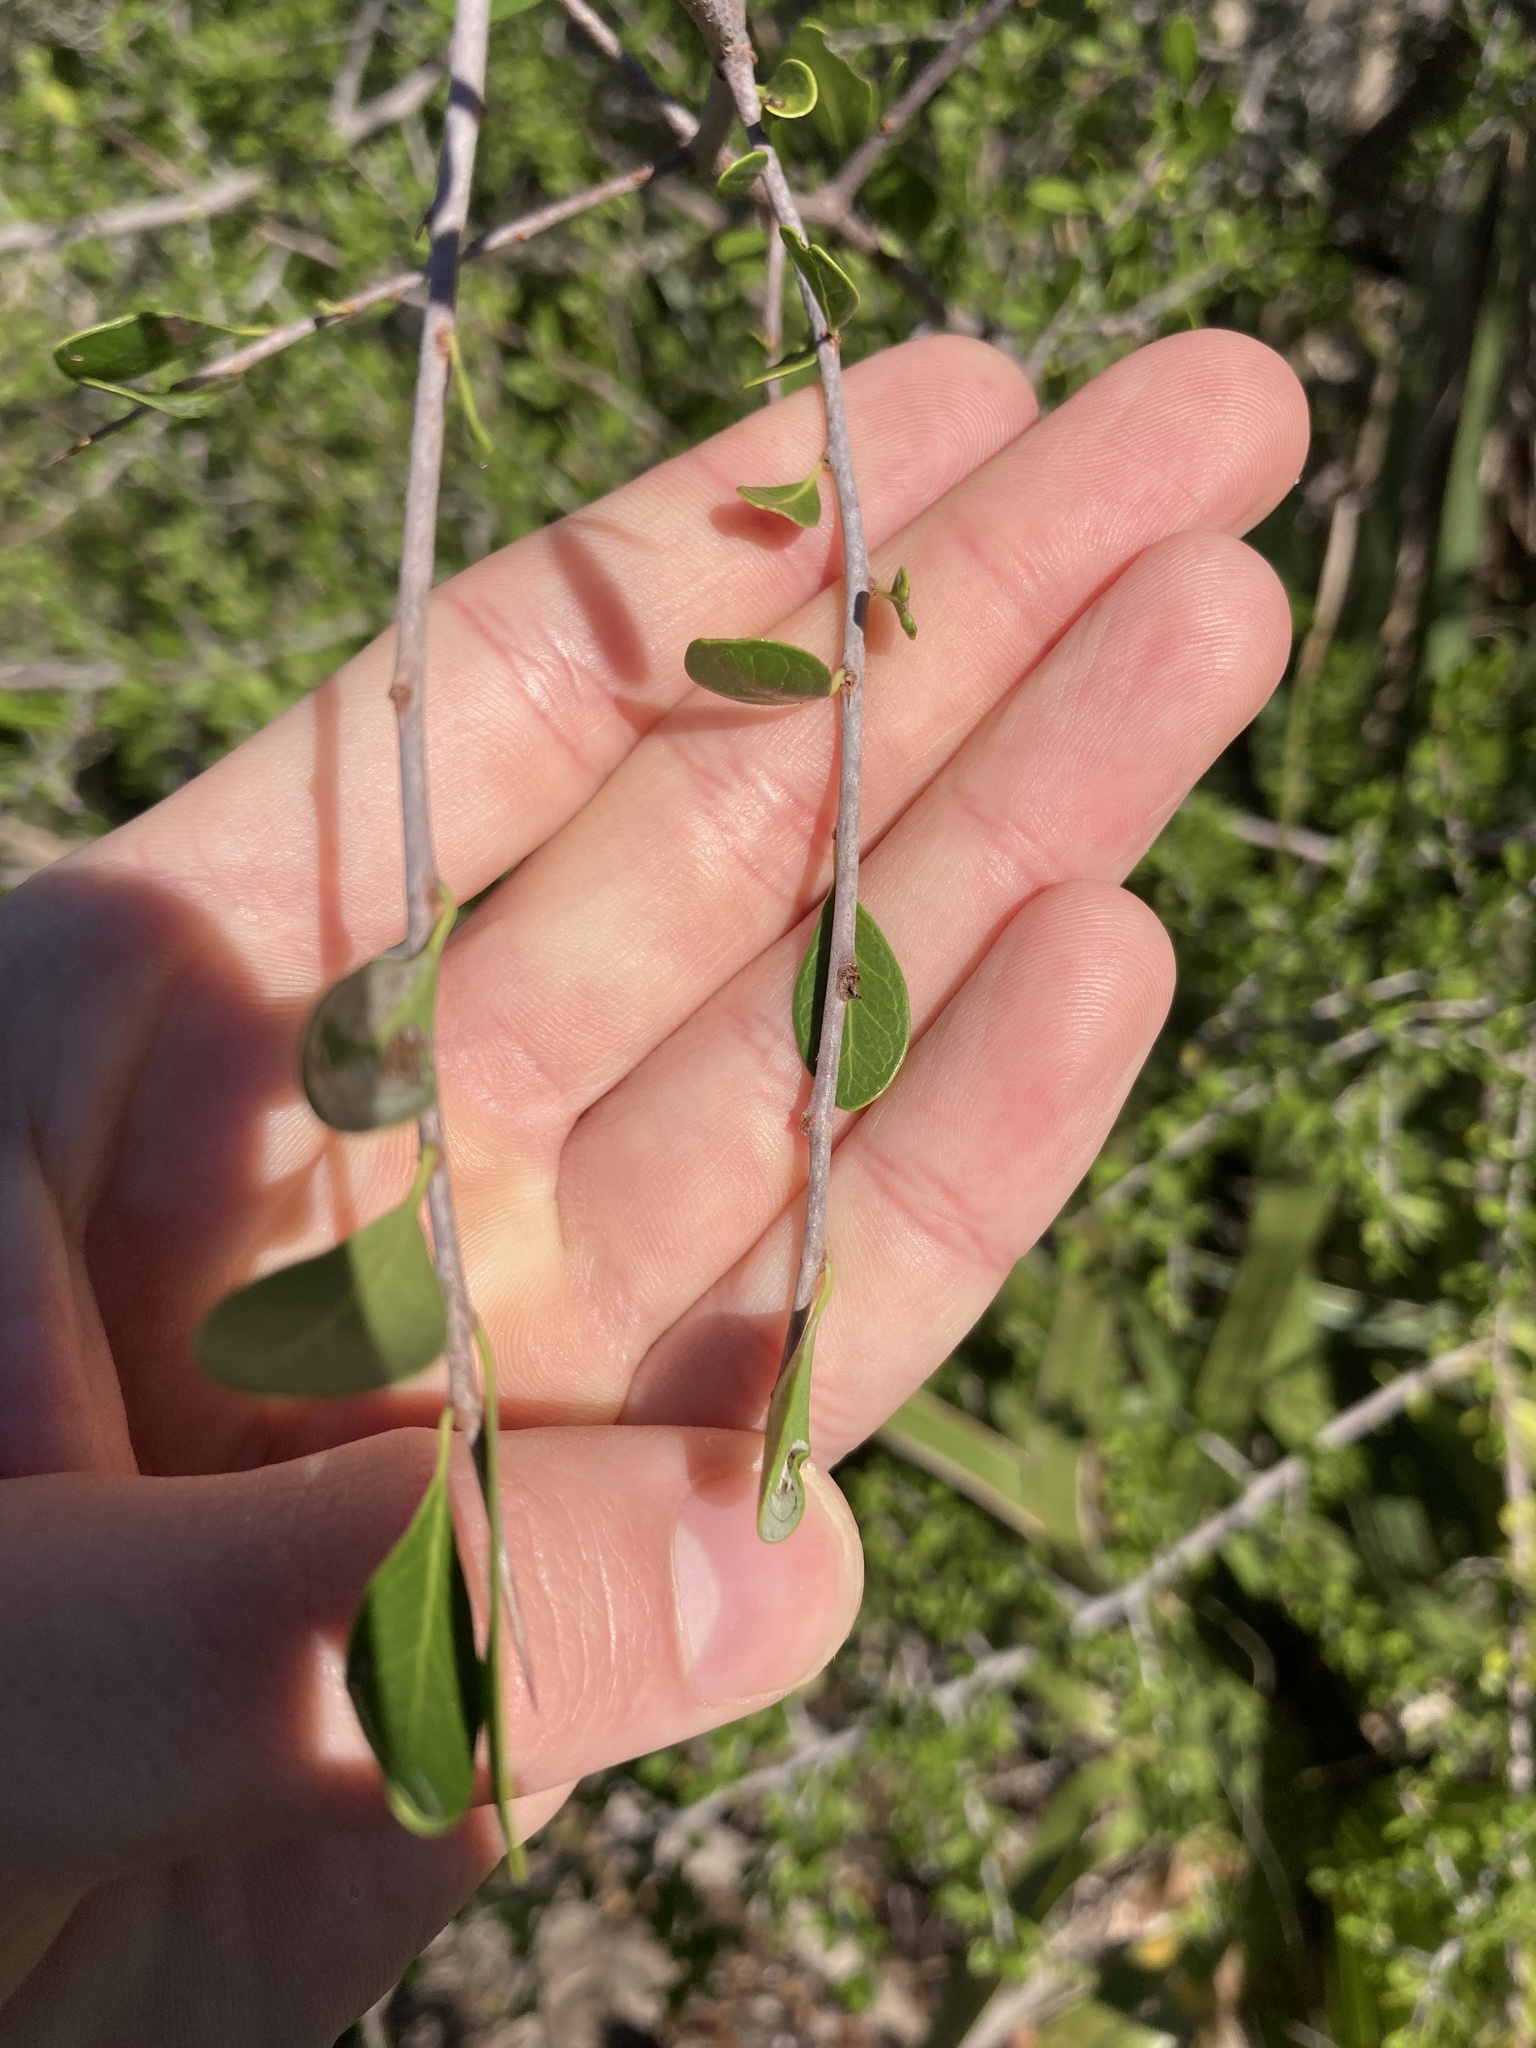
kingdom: Plantae
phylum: Tracheophyta
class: Magnoliopsida
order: Ericales
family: Sapotaceae
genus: Sideroxylon
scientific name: Sideroxylon celastrinum
